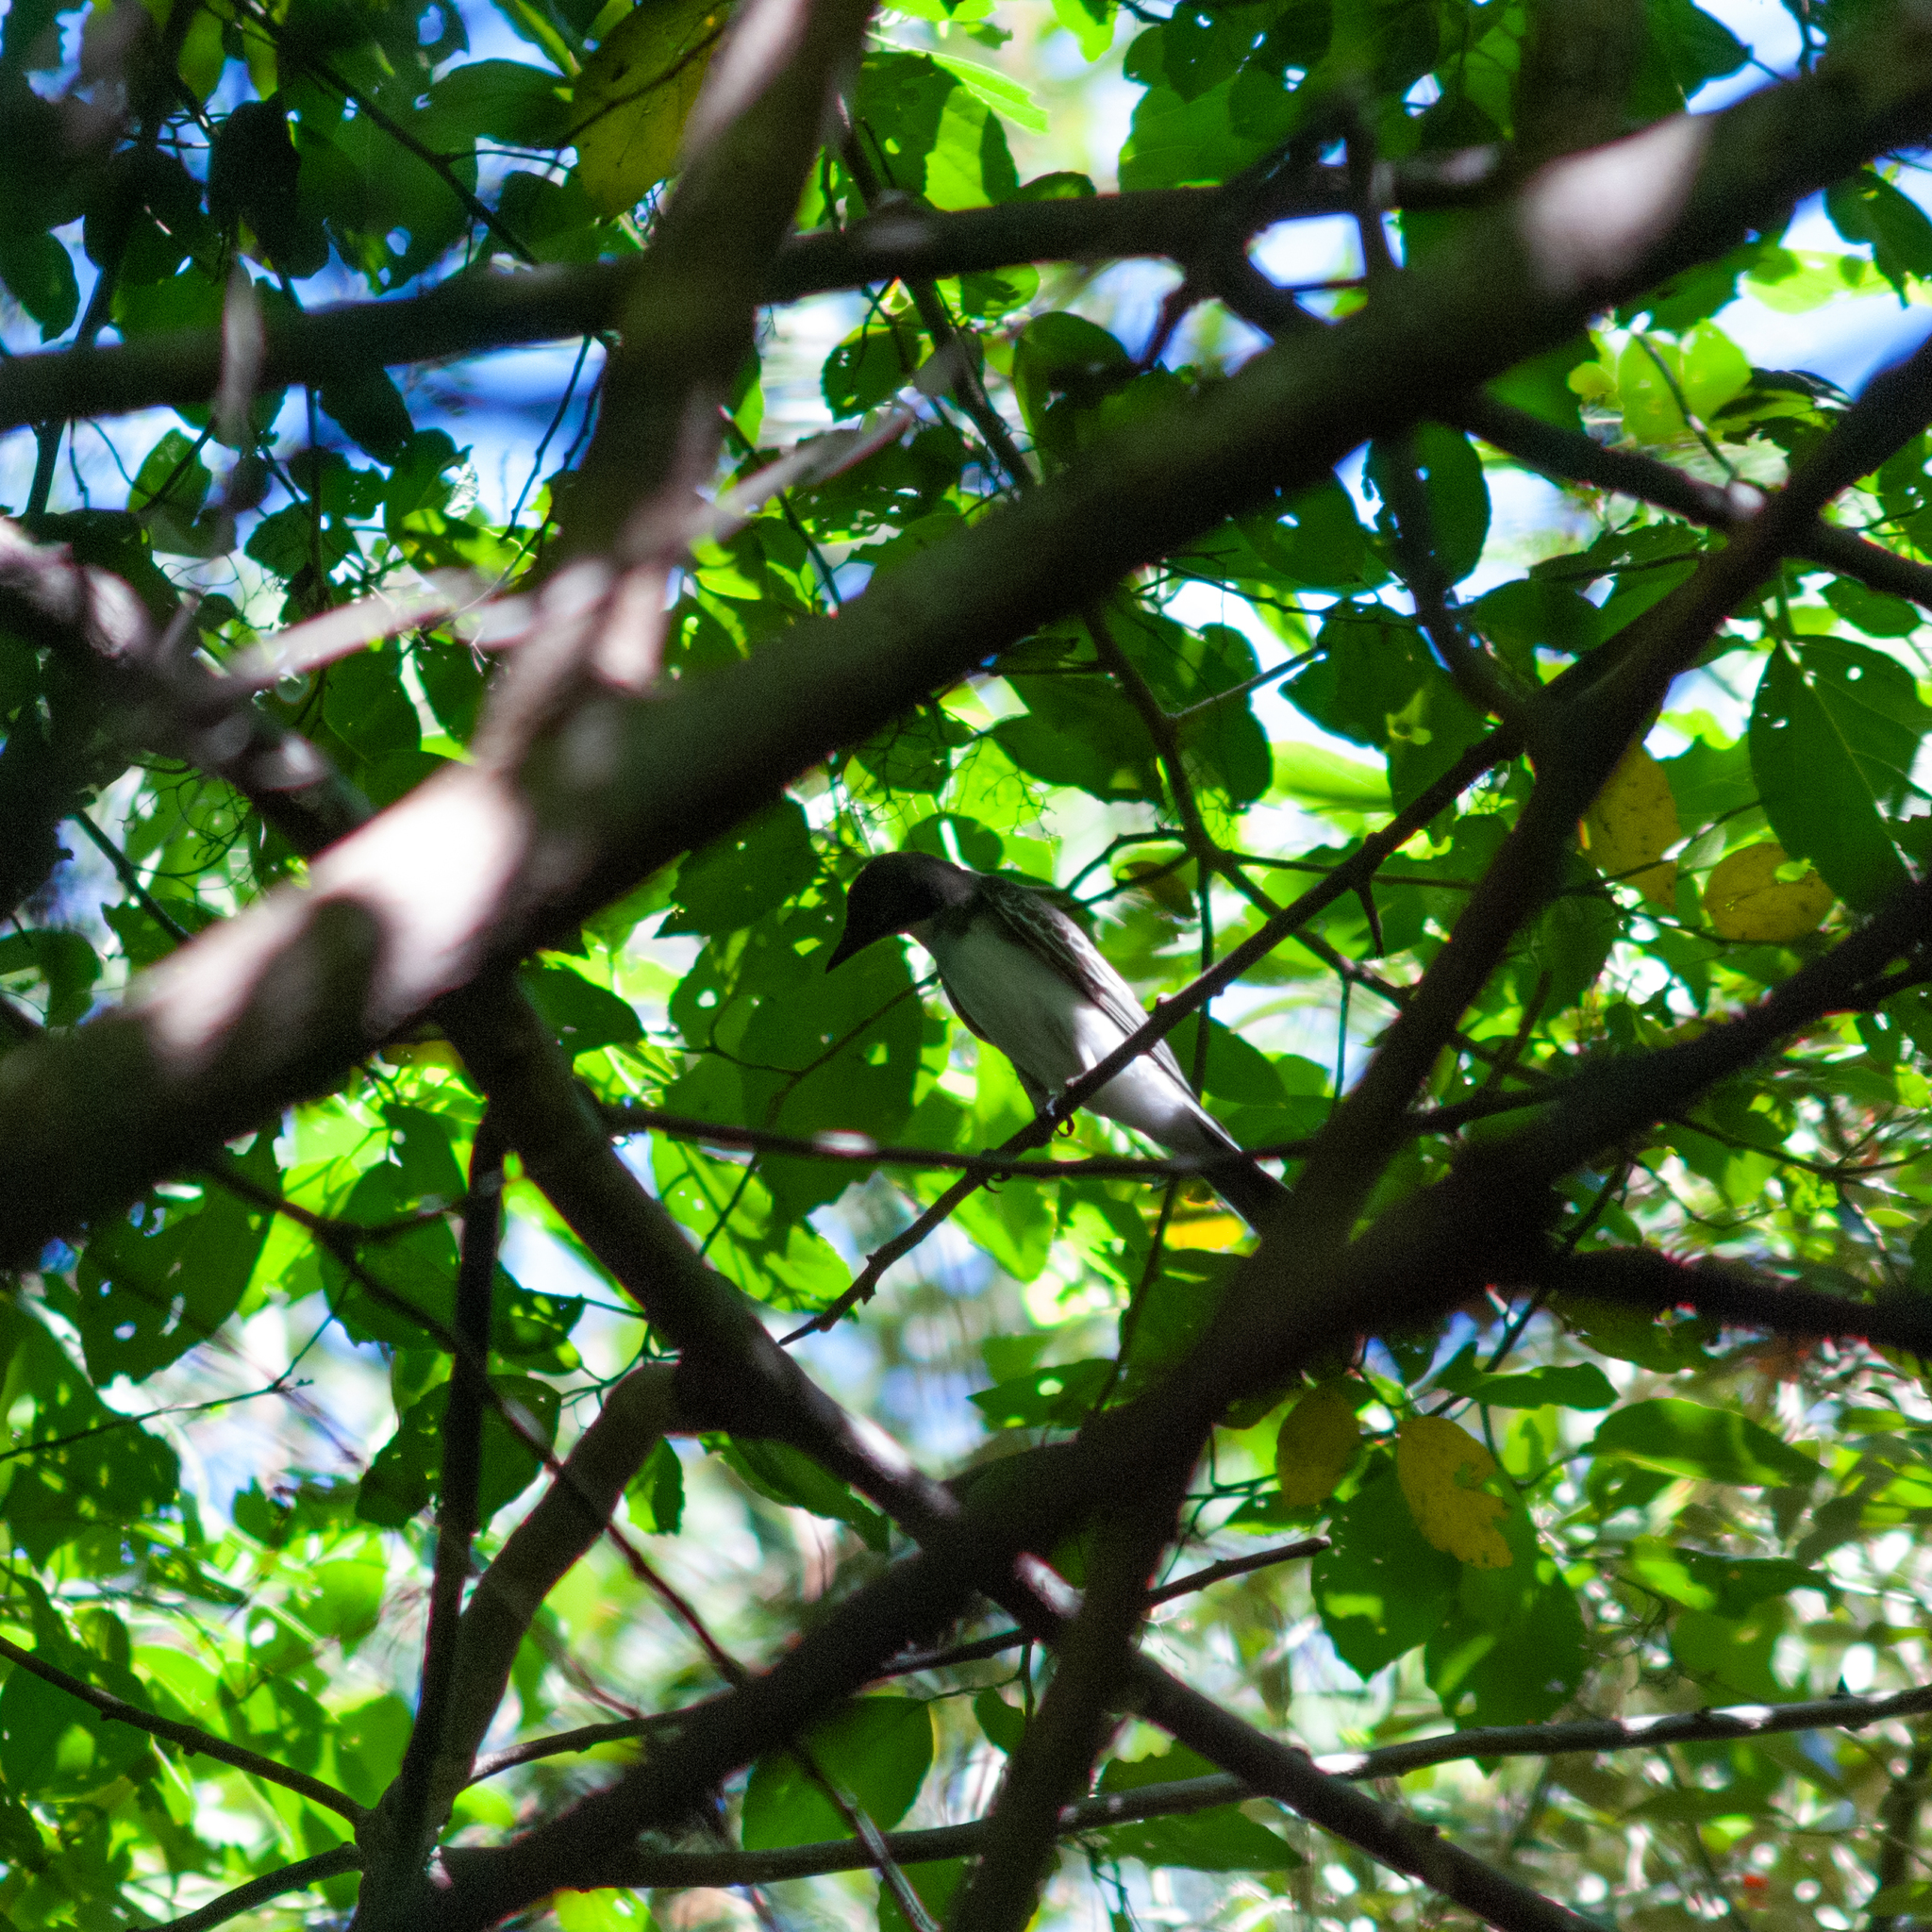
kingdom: Animalia
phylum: Chordata
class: Aves
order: Passeriformes
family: Tyrannidae
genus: Tyrannus
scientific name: Tyrannus tyrannus
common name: Eastern kingbird
